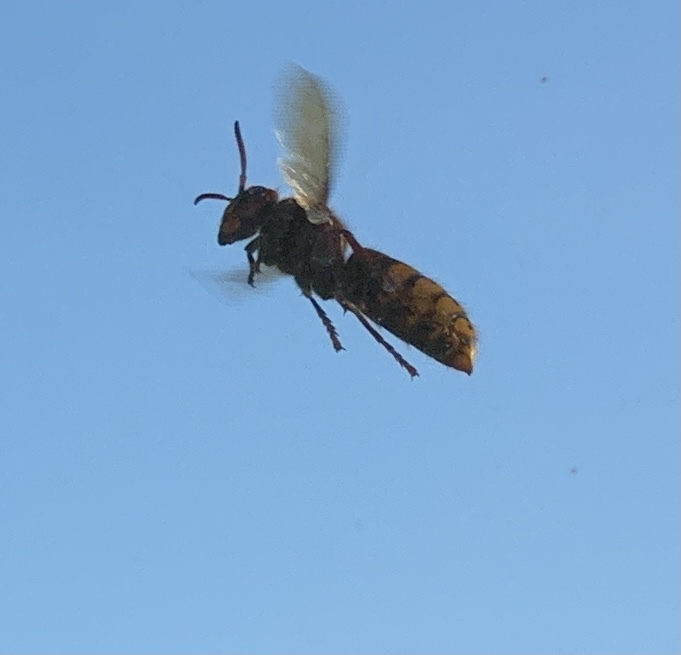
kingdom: Animalia
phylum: Arthropoda
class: Insecta
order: Hymenoptera
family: Vespidae
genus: Vespa
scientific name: Vespa crabro
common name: Hornet
